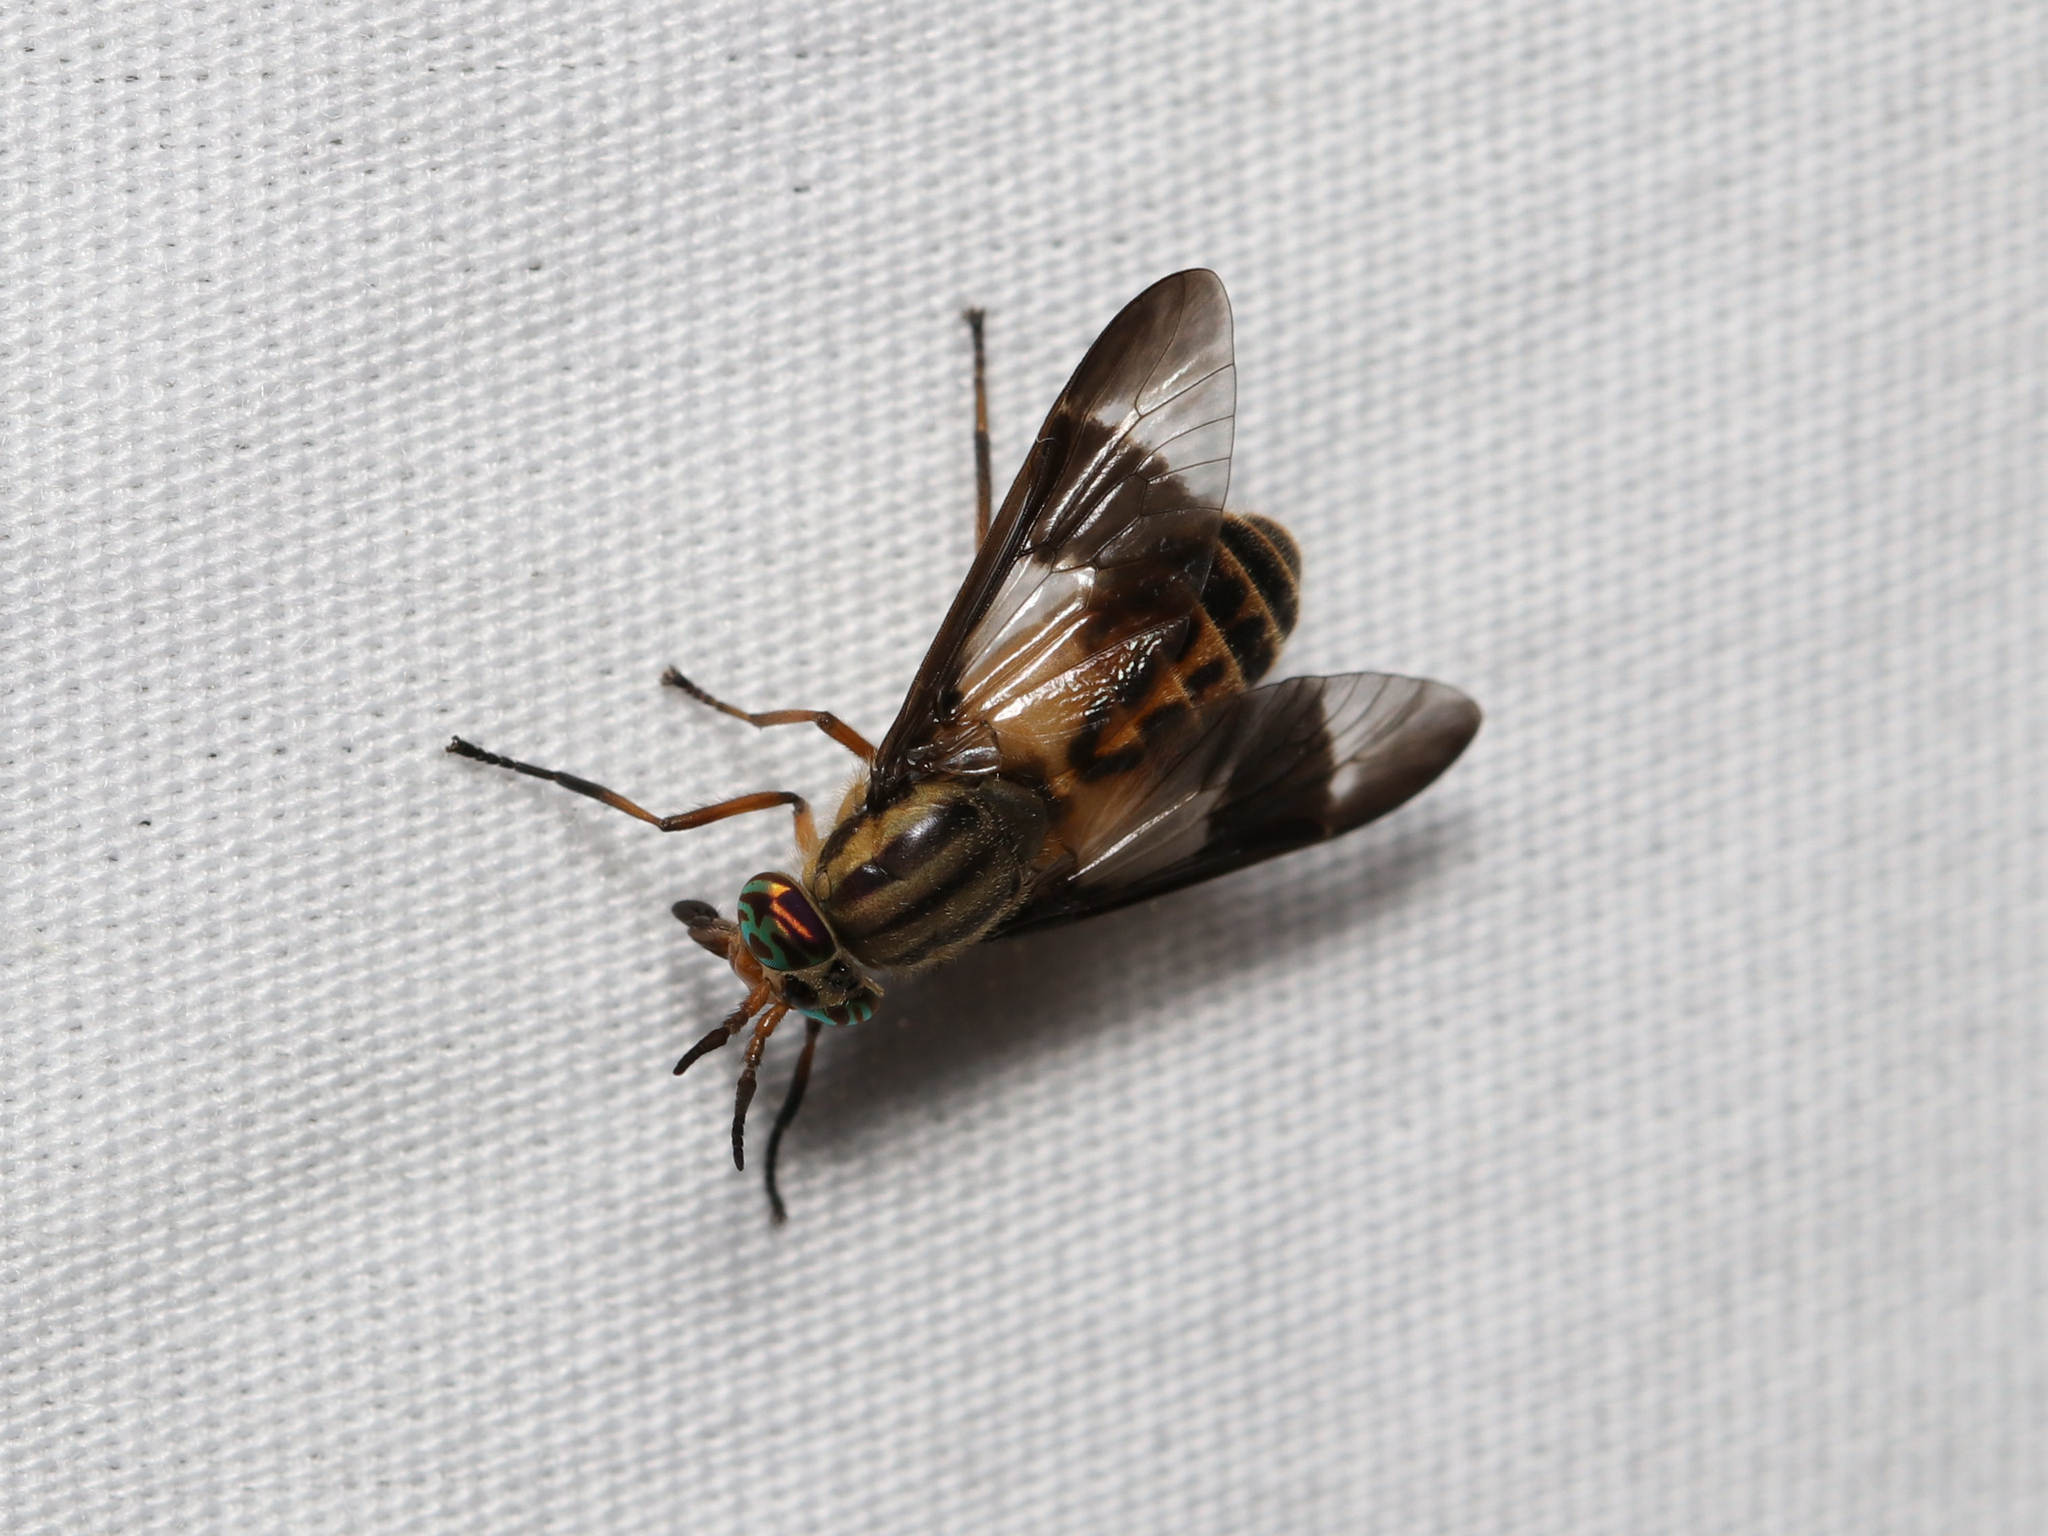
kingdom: Animalia
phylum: Arthropoda
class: Insecta
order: Diptera
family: Tabanidae
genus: Chrysops
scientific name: Chrysops montanus
